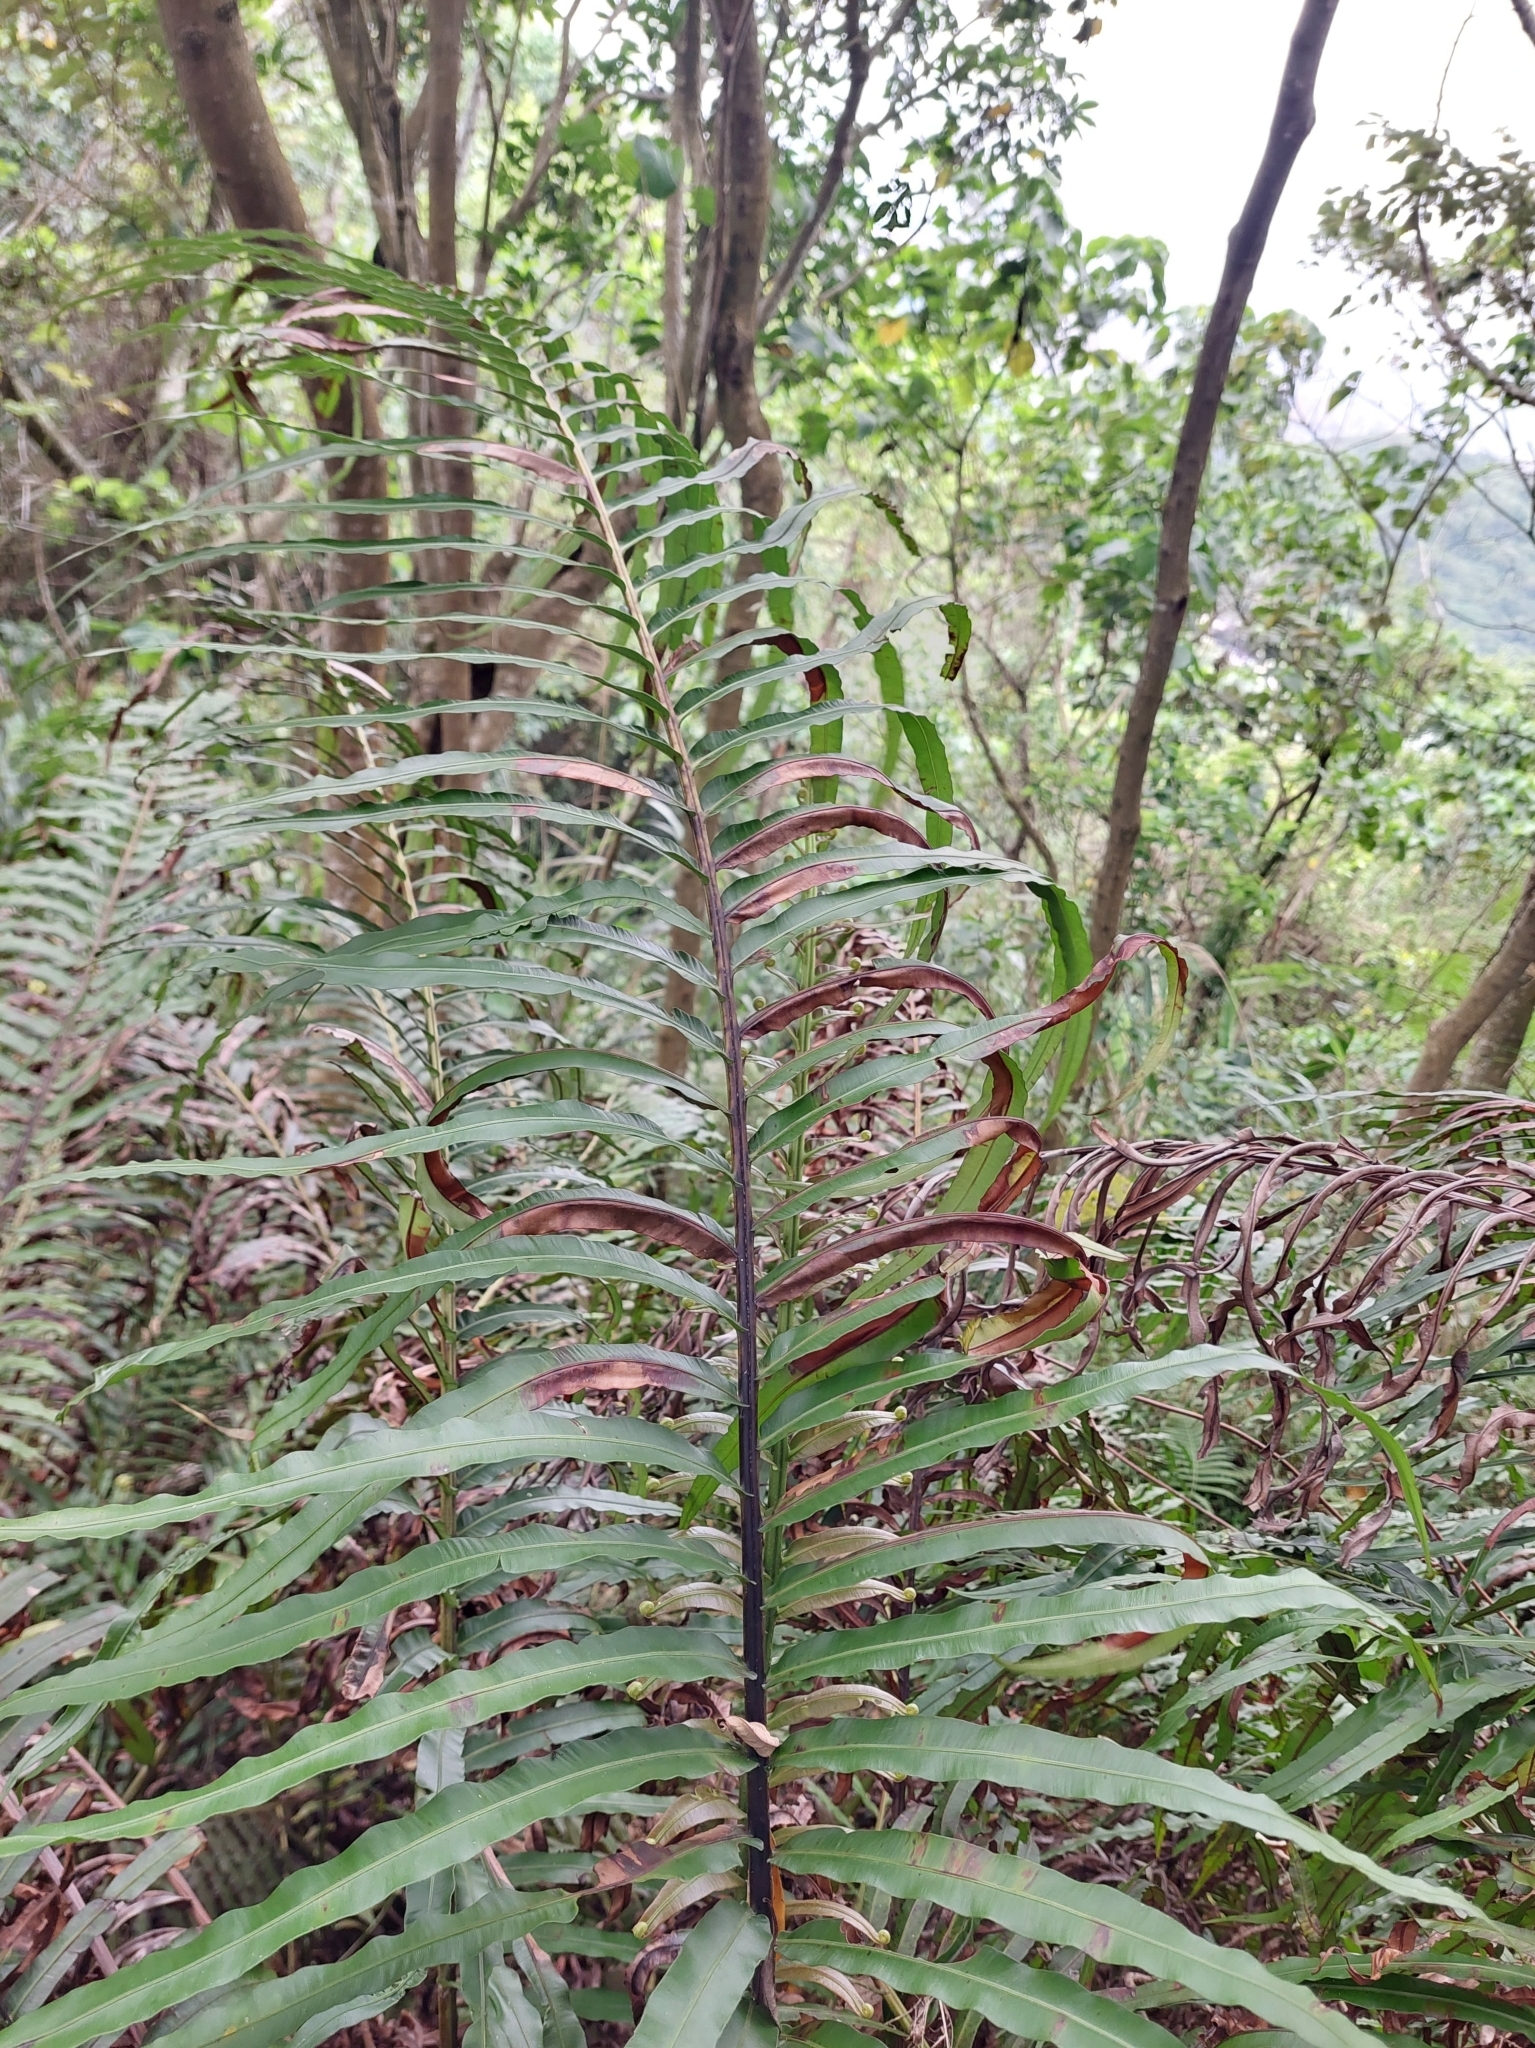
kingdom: Plantae
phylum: Tracheophyta
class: Polypodiopsida
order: Polypodiales
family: Blechnaceae
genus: Blechnopsis
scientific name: Blechnopsis orientalis
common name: Oriental blechnum
